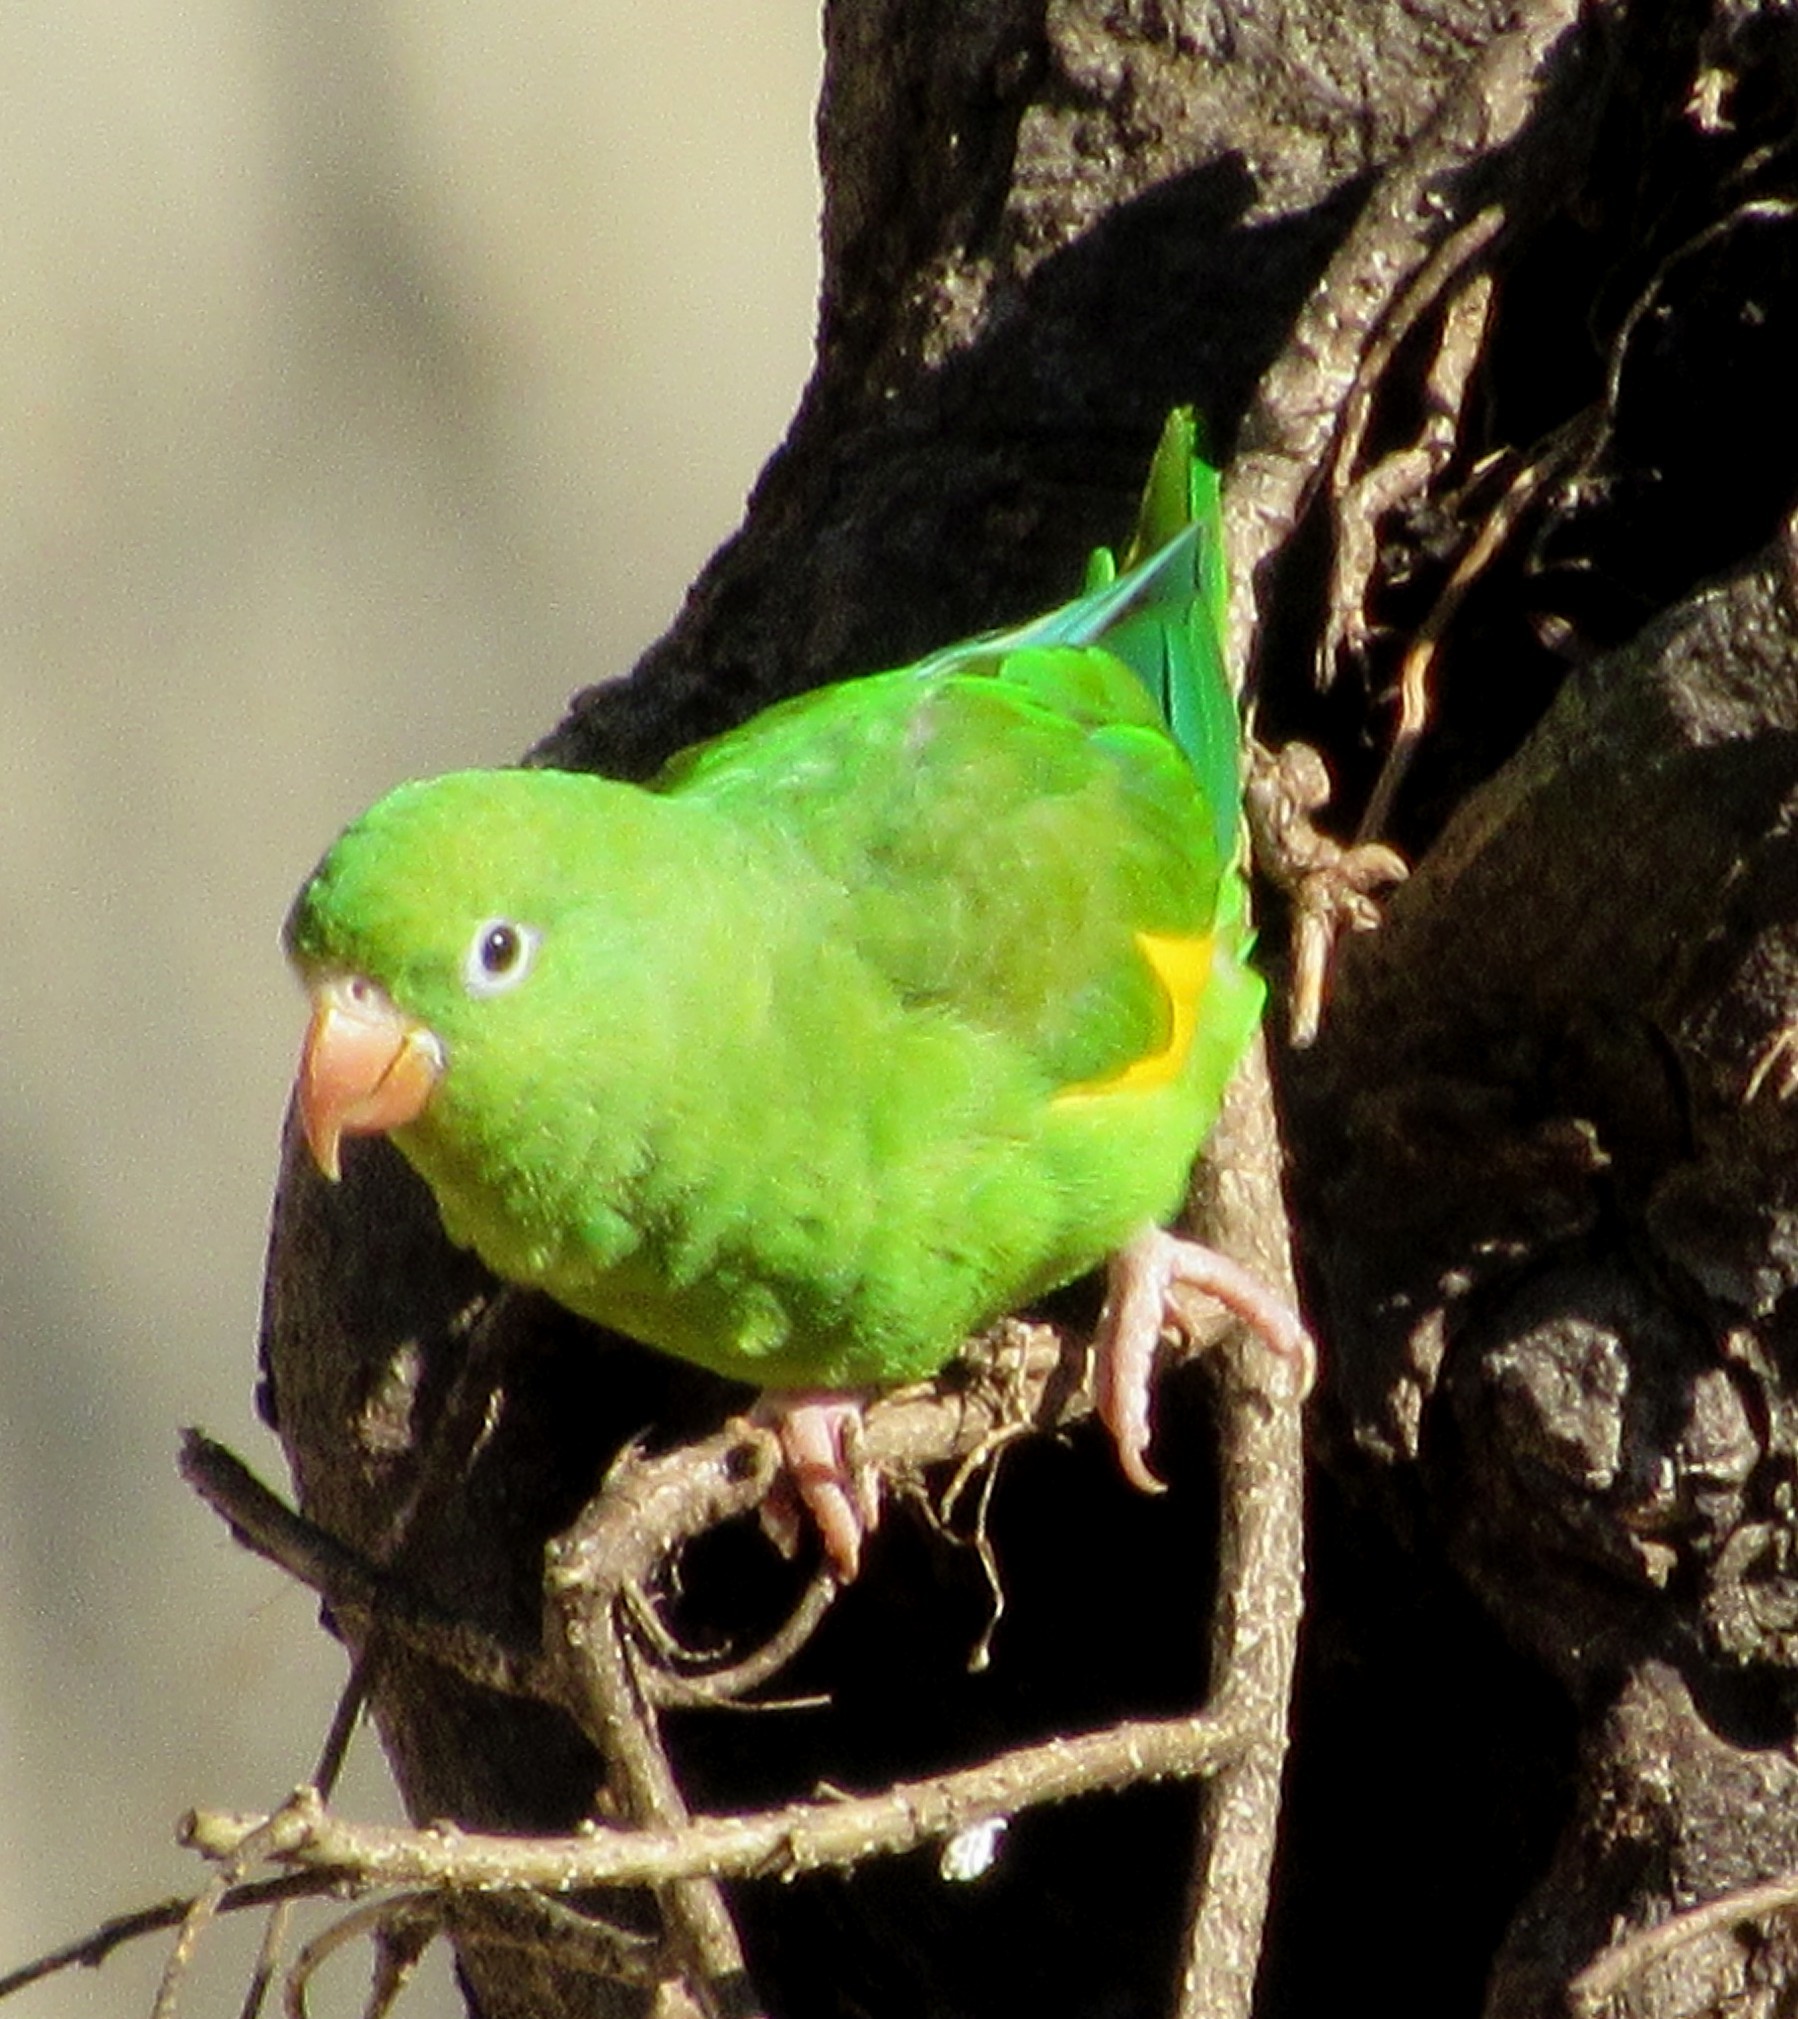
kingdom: Animalia
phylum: Chordata
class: Aves
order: Psittaciformes
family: Psittacidae
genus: Brotogeris
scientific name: Brotogeris chiriri
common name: Yellow-chevroned parakeet
